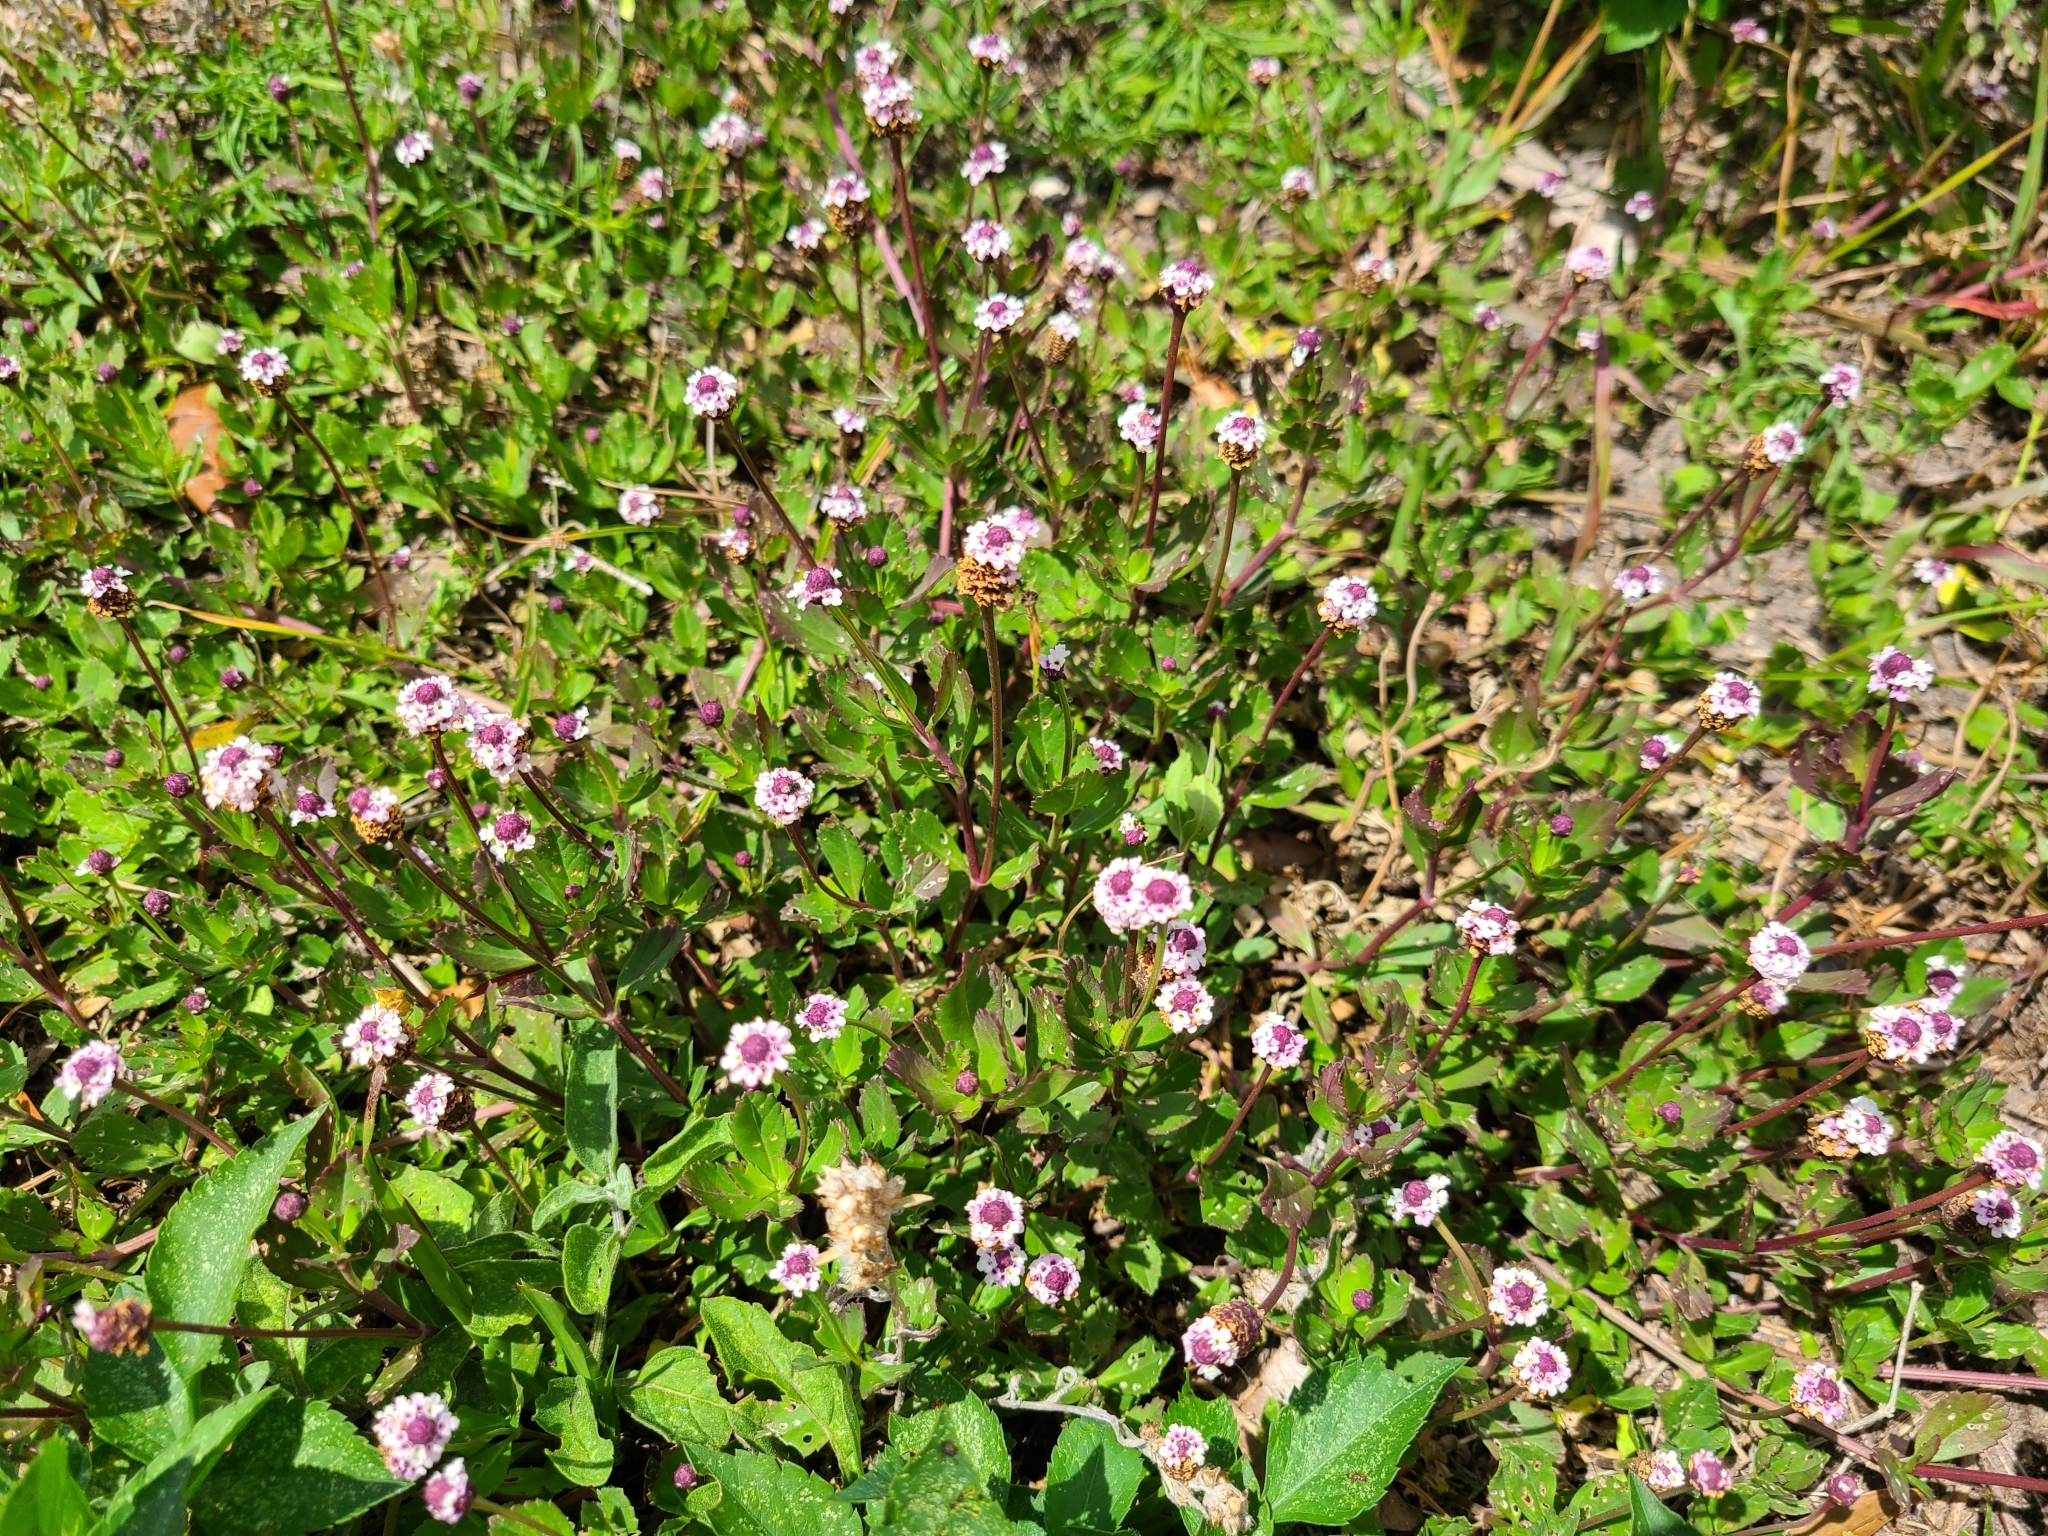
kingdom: Plantae
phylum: Tracheophyta
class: Magnoliopsida
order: Lamiales
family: Verbenaceae
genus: Phyla
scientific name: Phyla nodiflora
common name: Frogfruit
